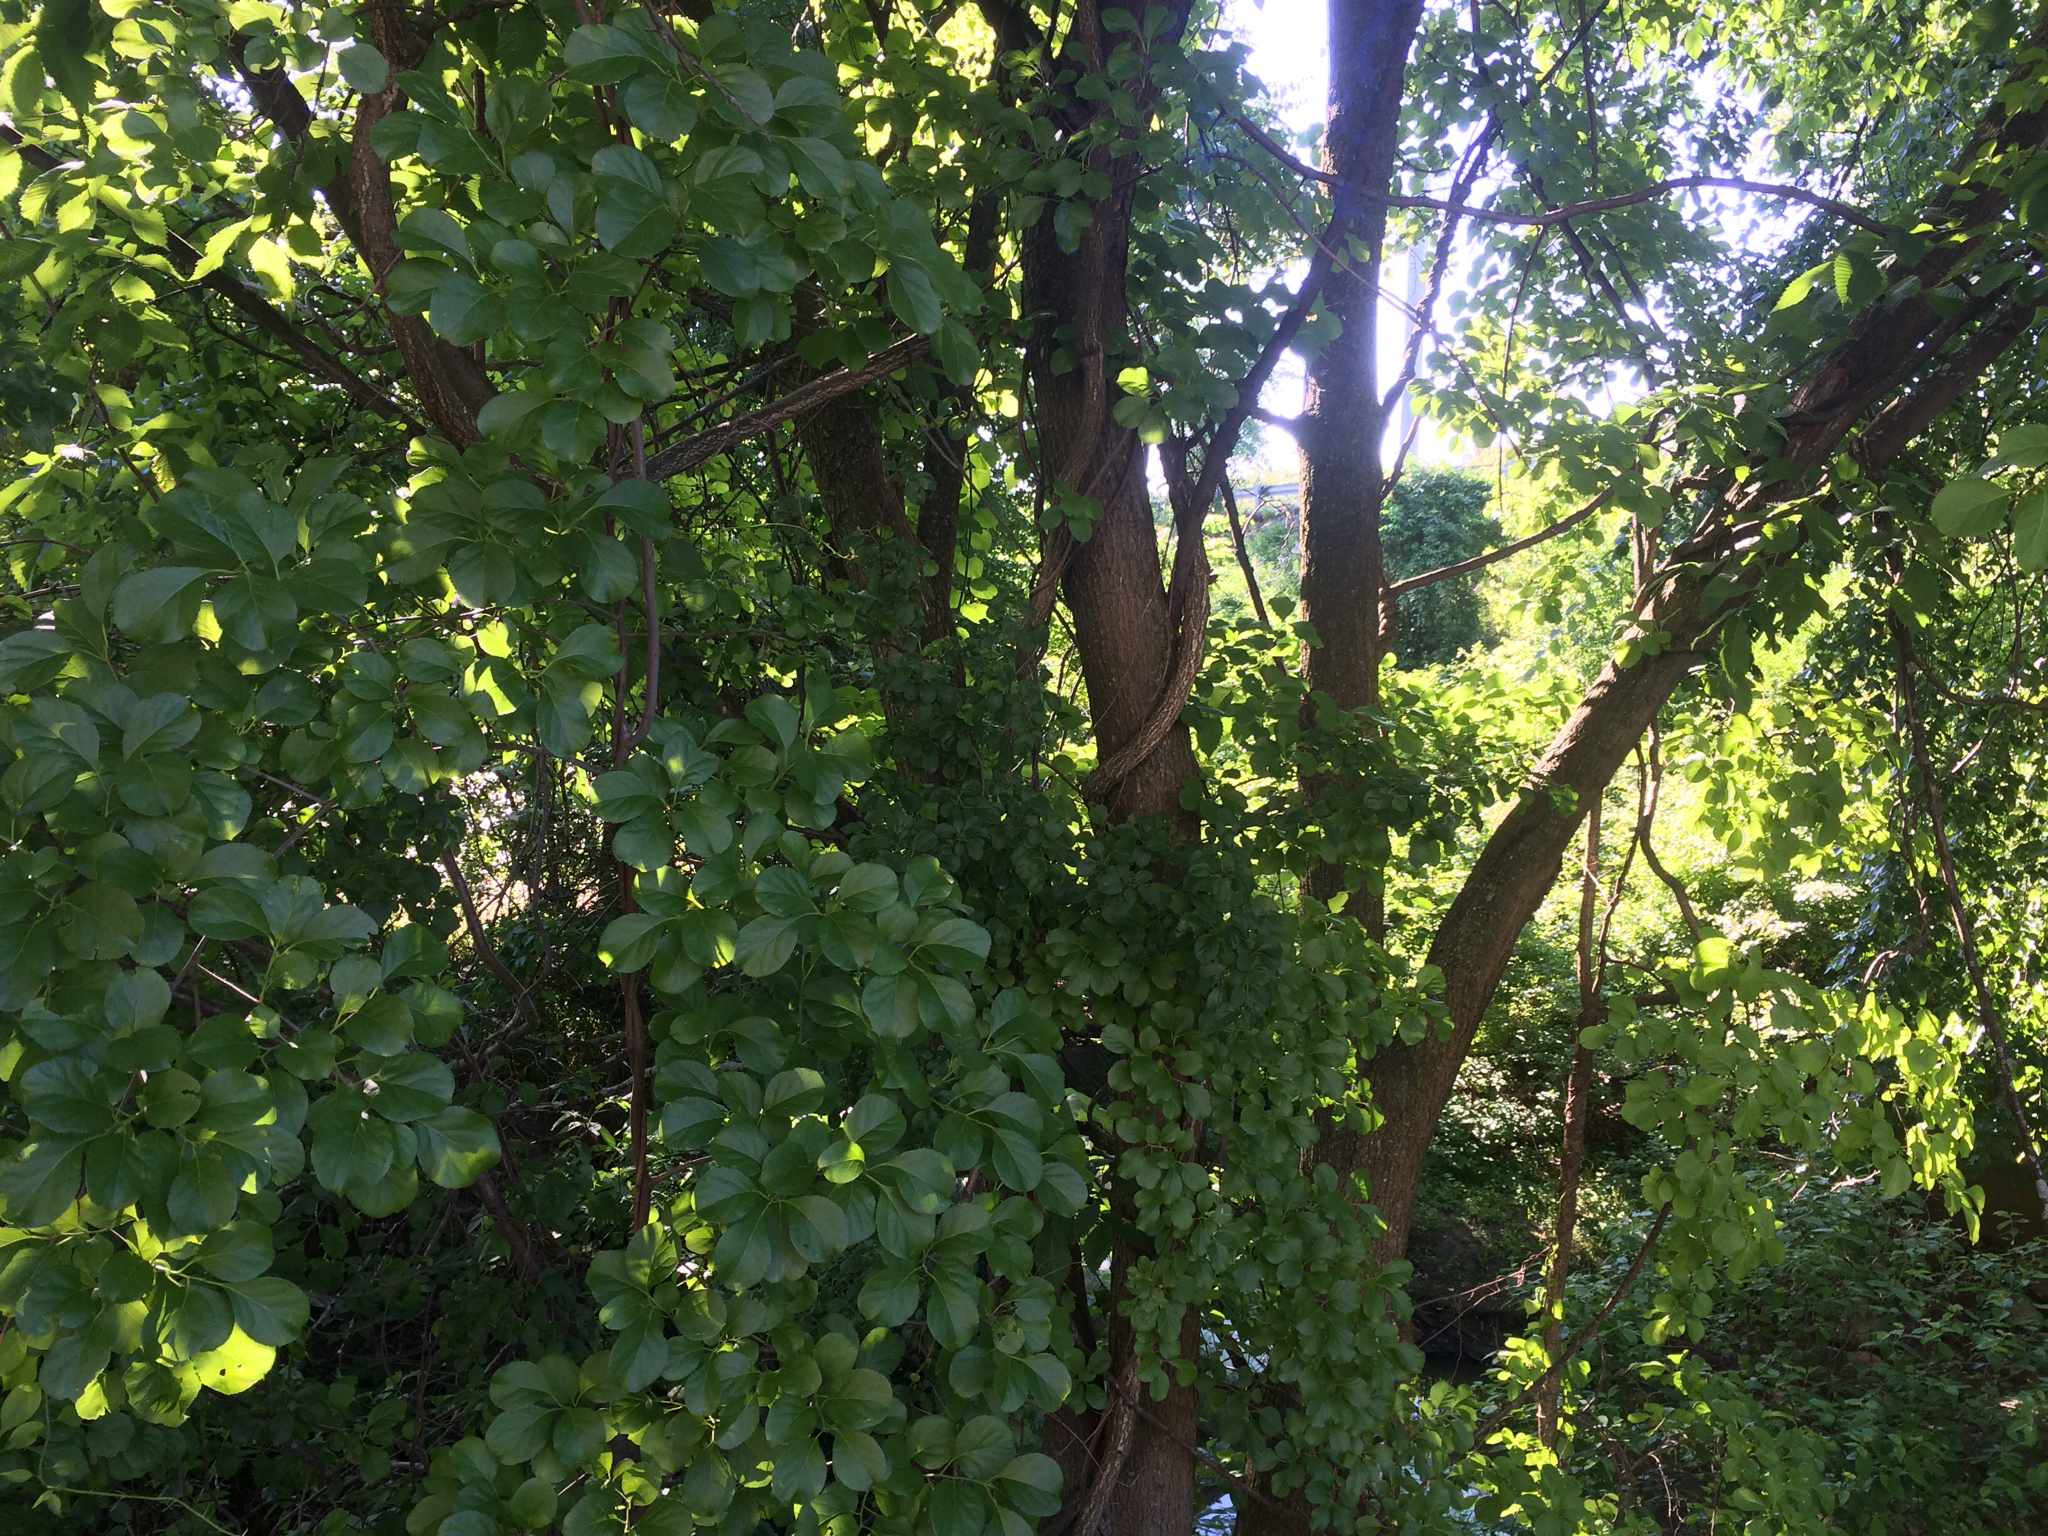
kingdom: Plantae
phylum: Tracheophyta
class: Magnoliopsida
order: Celastrales
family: Celastraceae
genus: Celastrus
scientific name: Celastrus orbiculatus
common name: Oriental bittersweet
